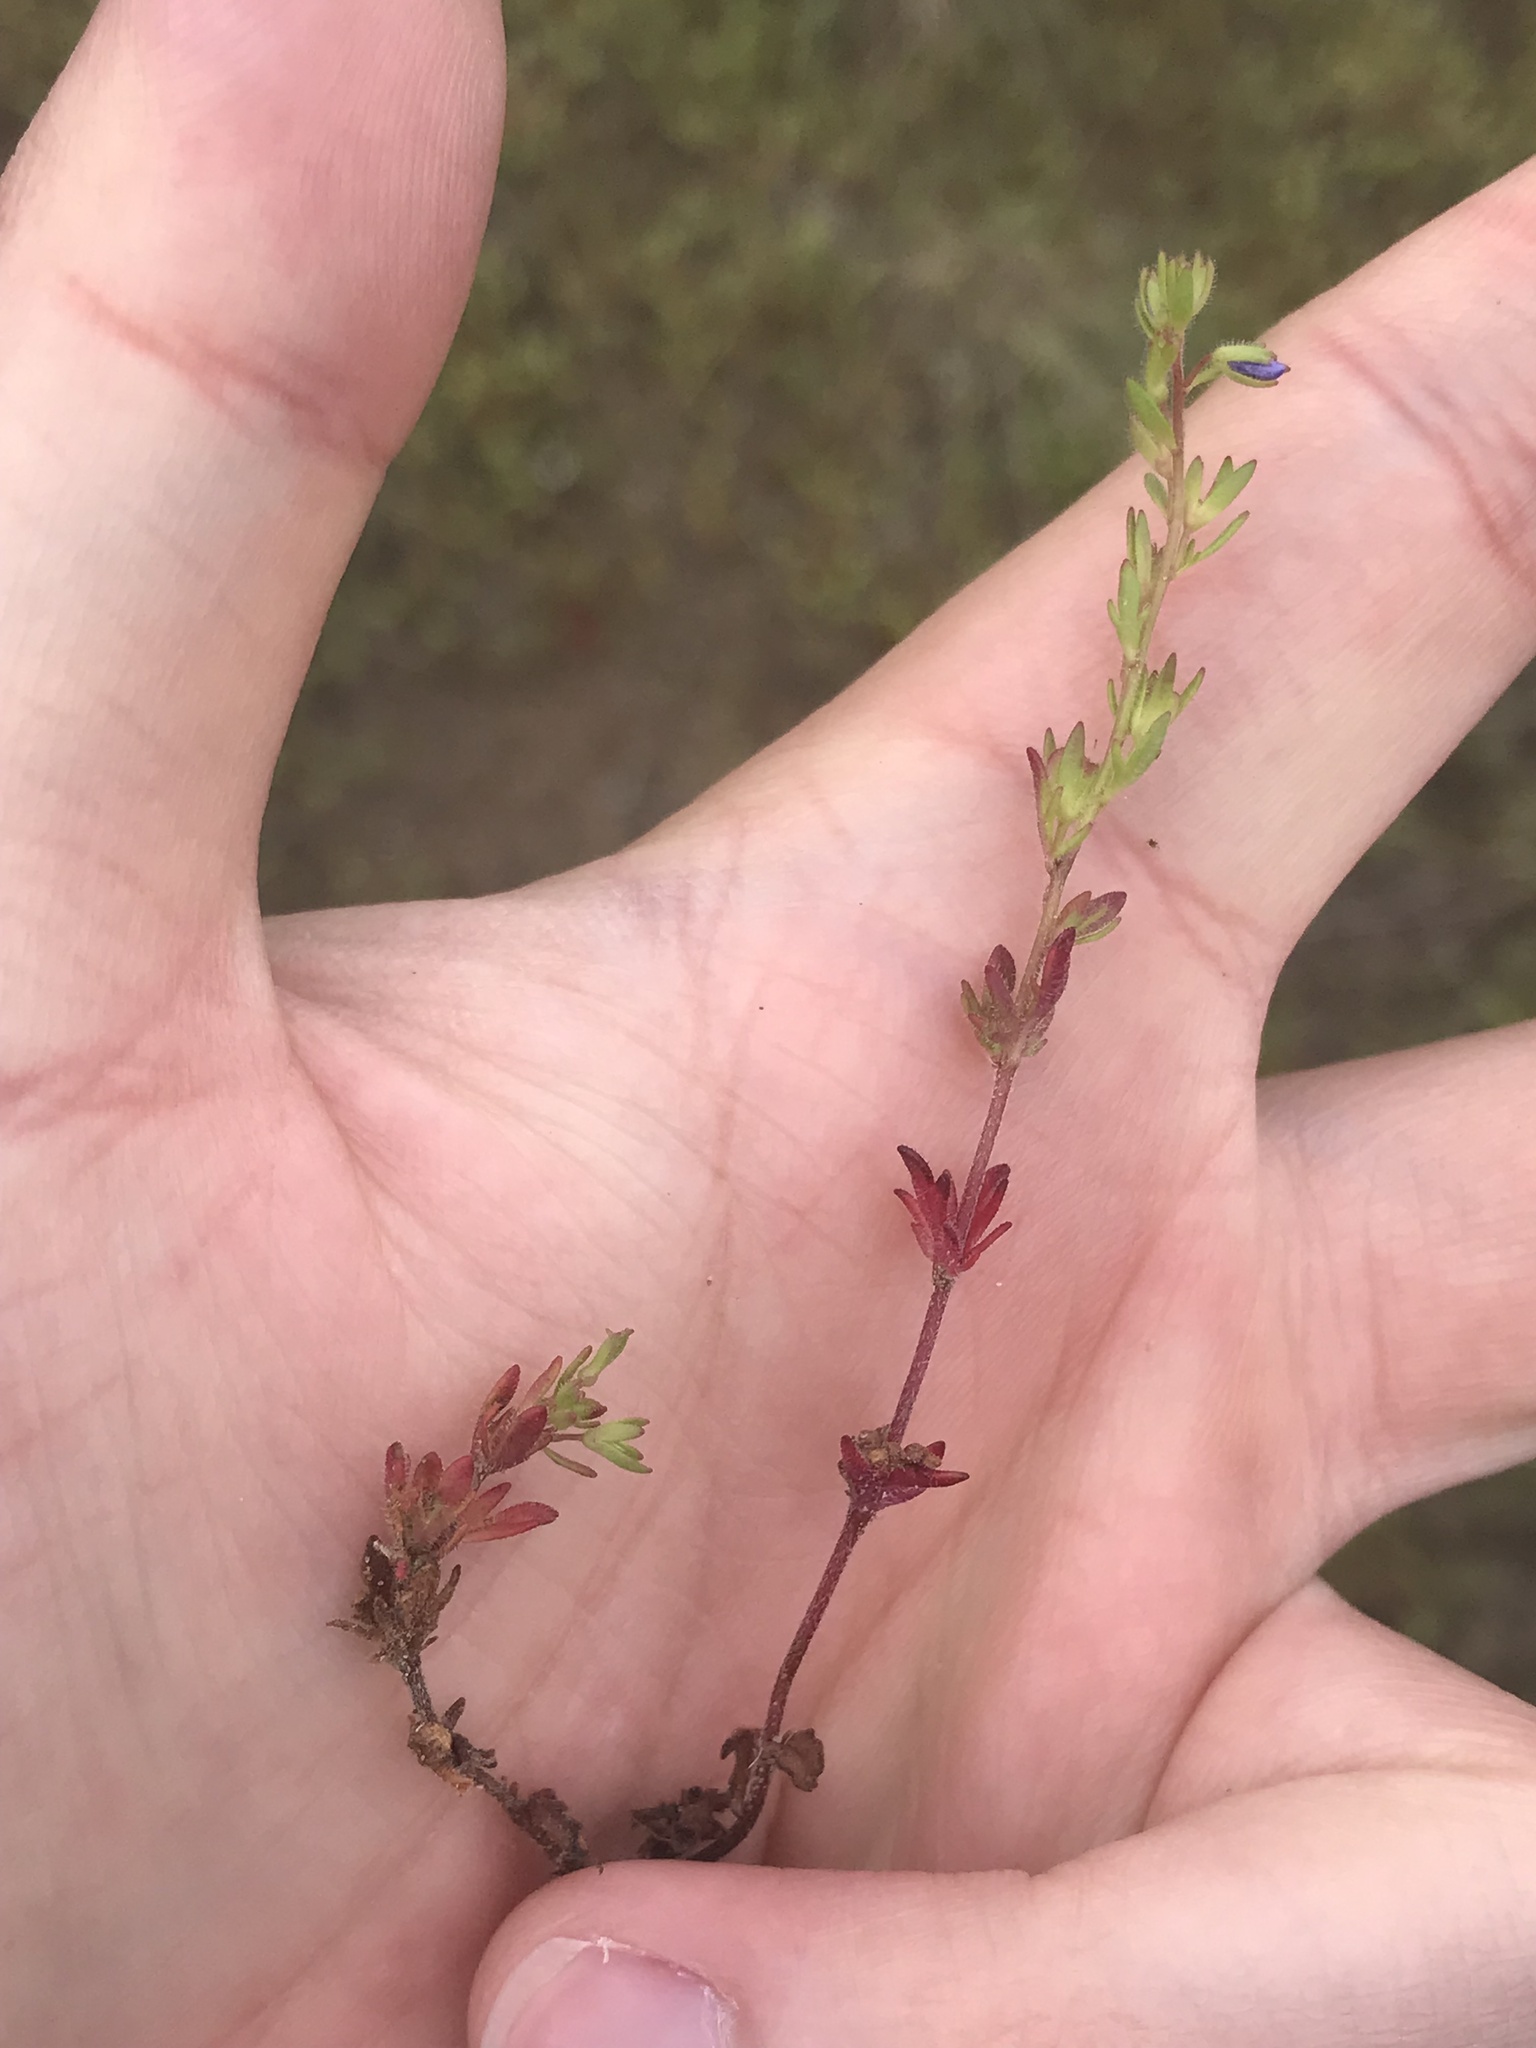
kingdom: Plantae
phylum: Tracheophyta
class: Magnoliopsida
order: Lamiales
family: Plantaginaceae
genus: Veronica
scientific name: Veronica dillenii
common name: Dillenius' speedwell
